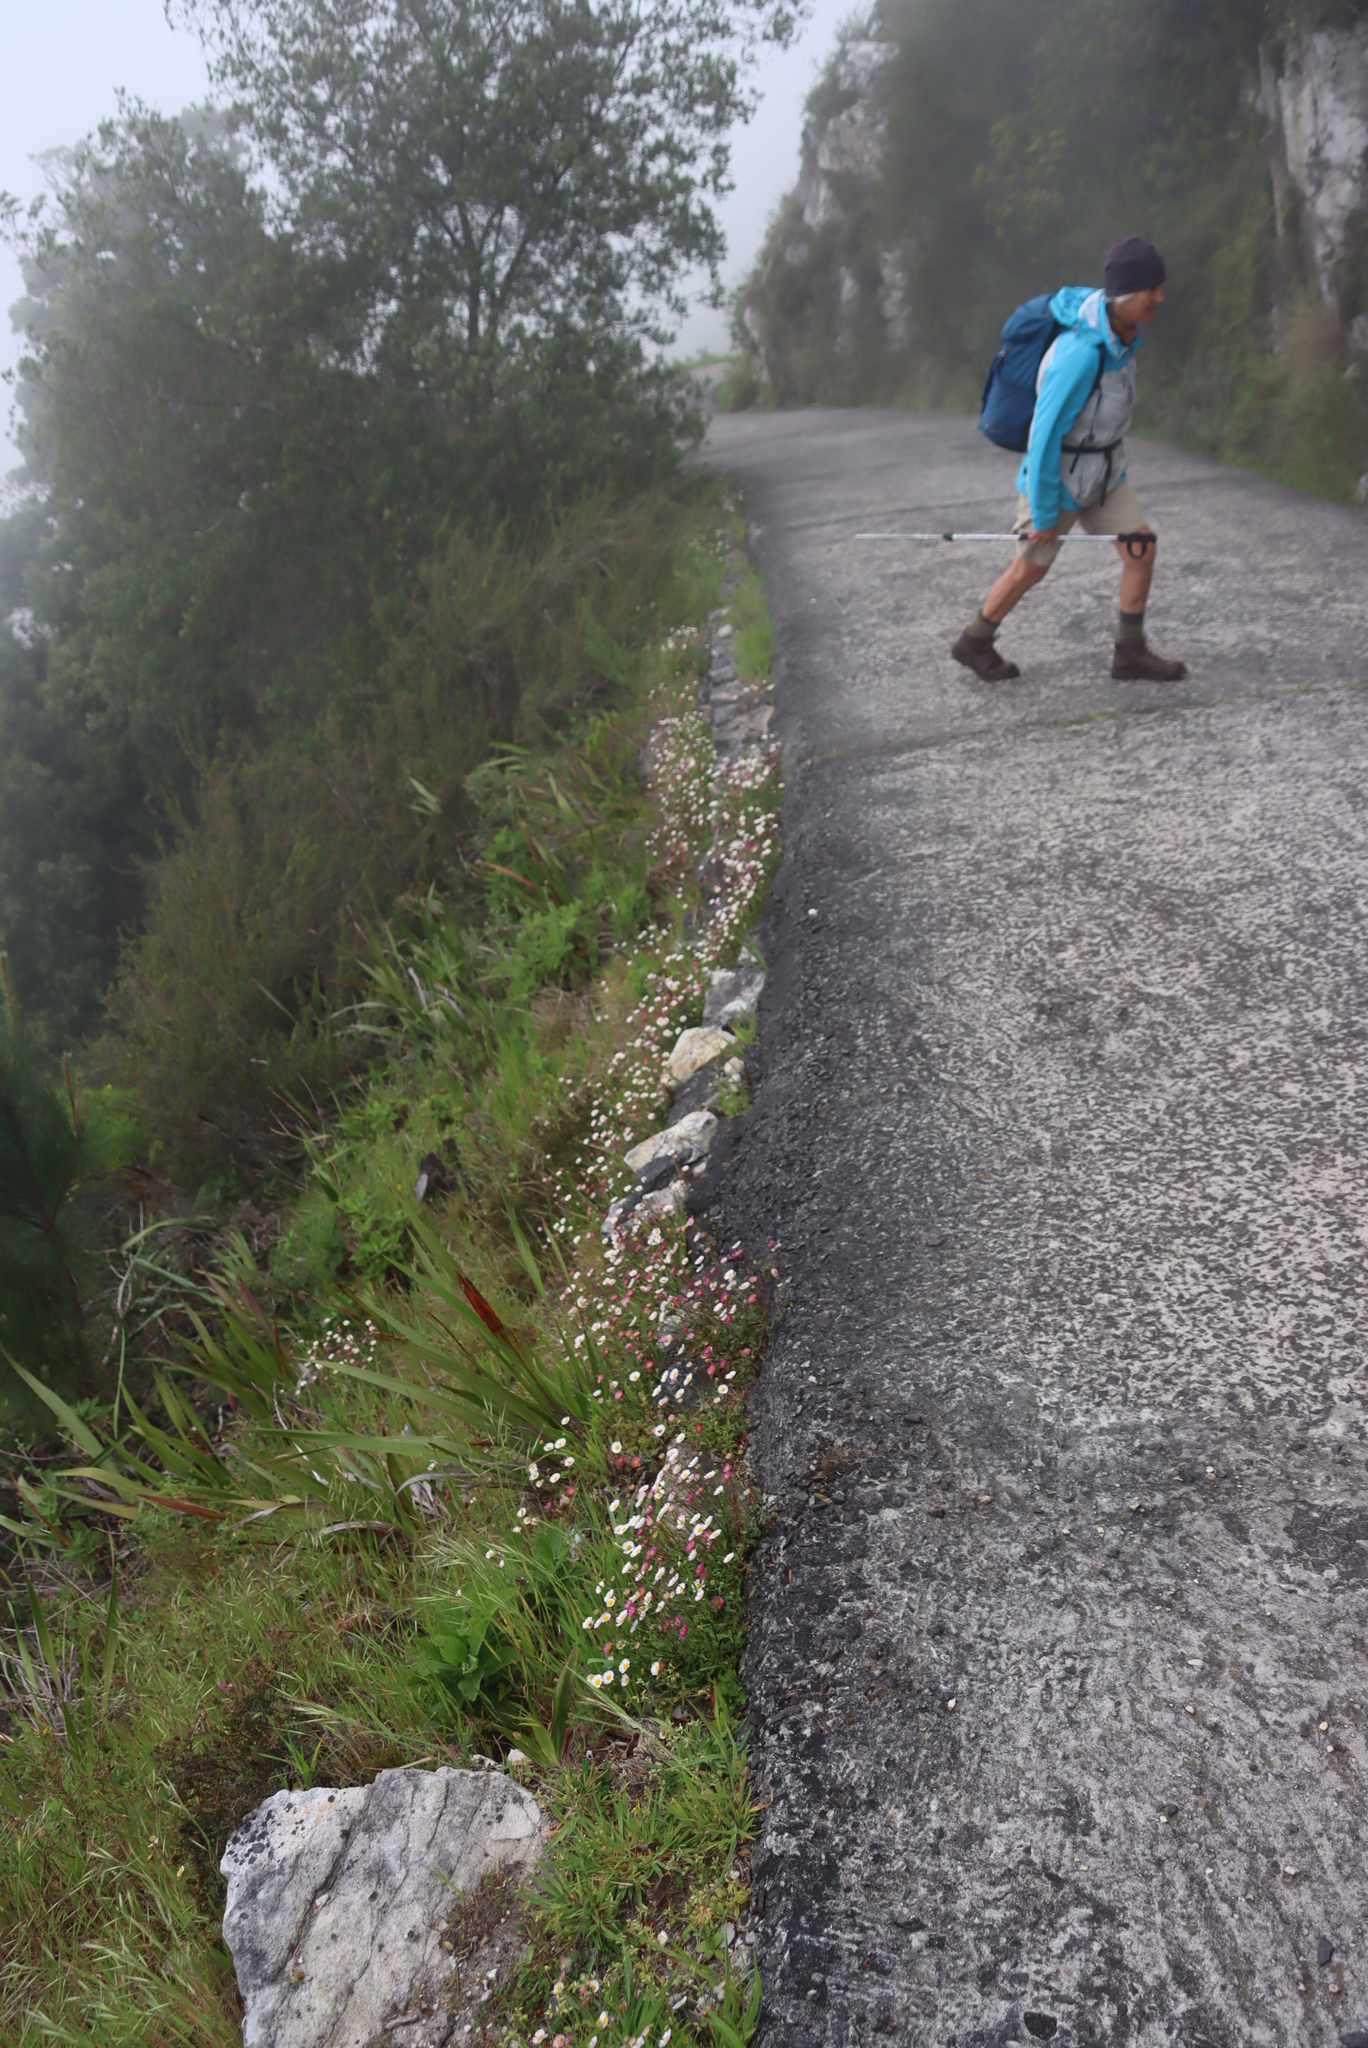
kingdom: Plantae
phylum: Tracheophyta
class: Magnoliopsida
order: Asterales
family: Asteraceae
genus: Erigeron
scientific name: Erigeron karvinskianus
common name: Mexican fleabane
